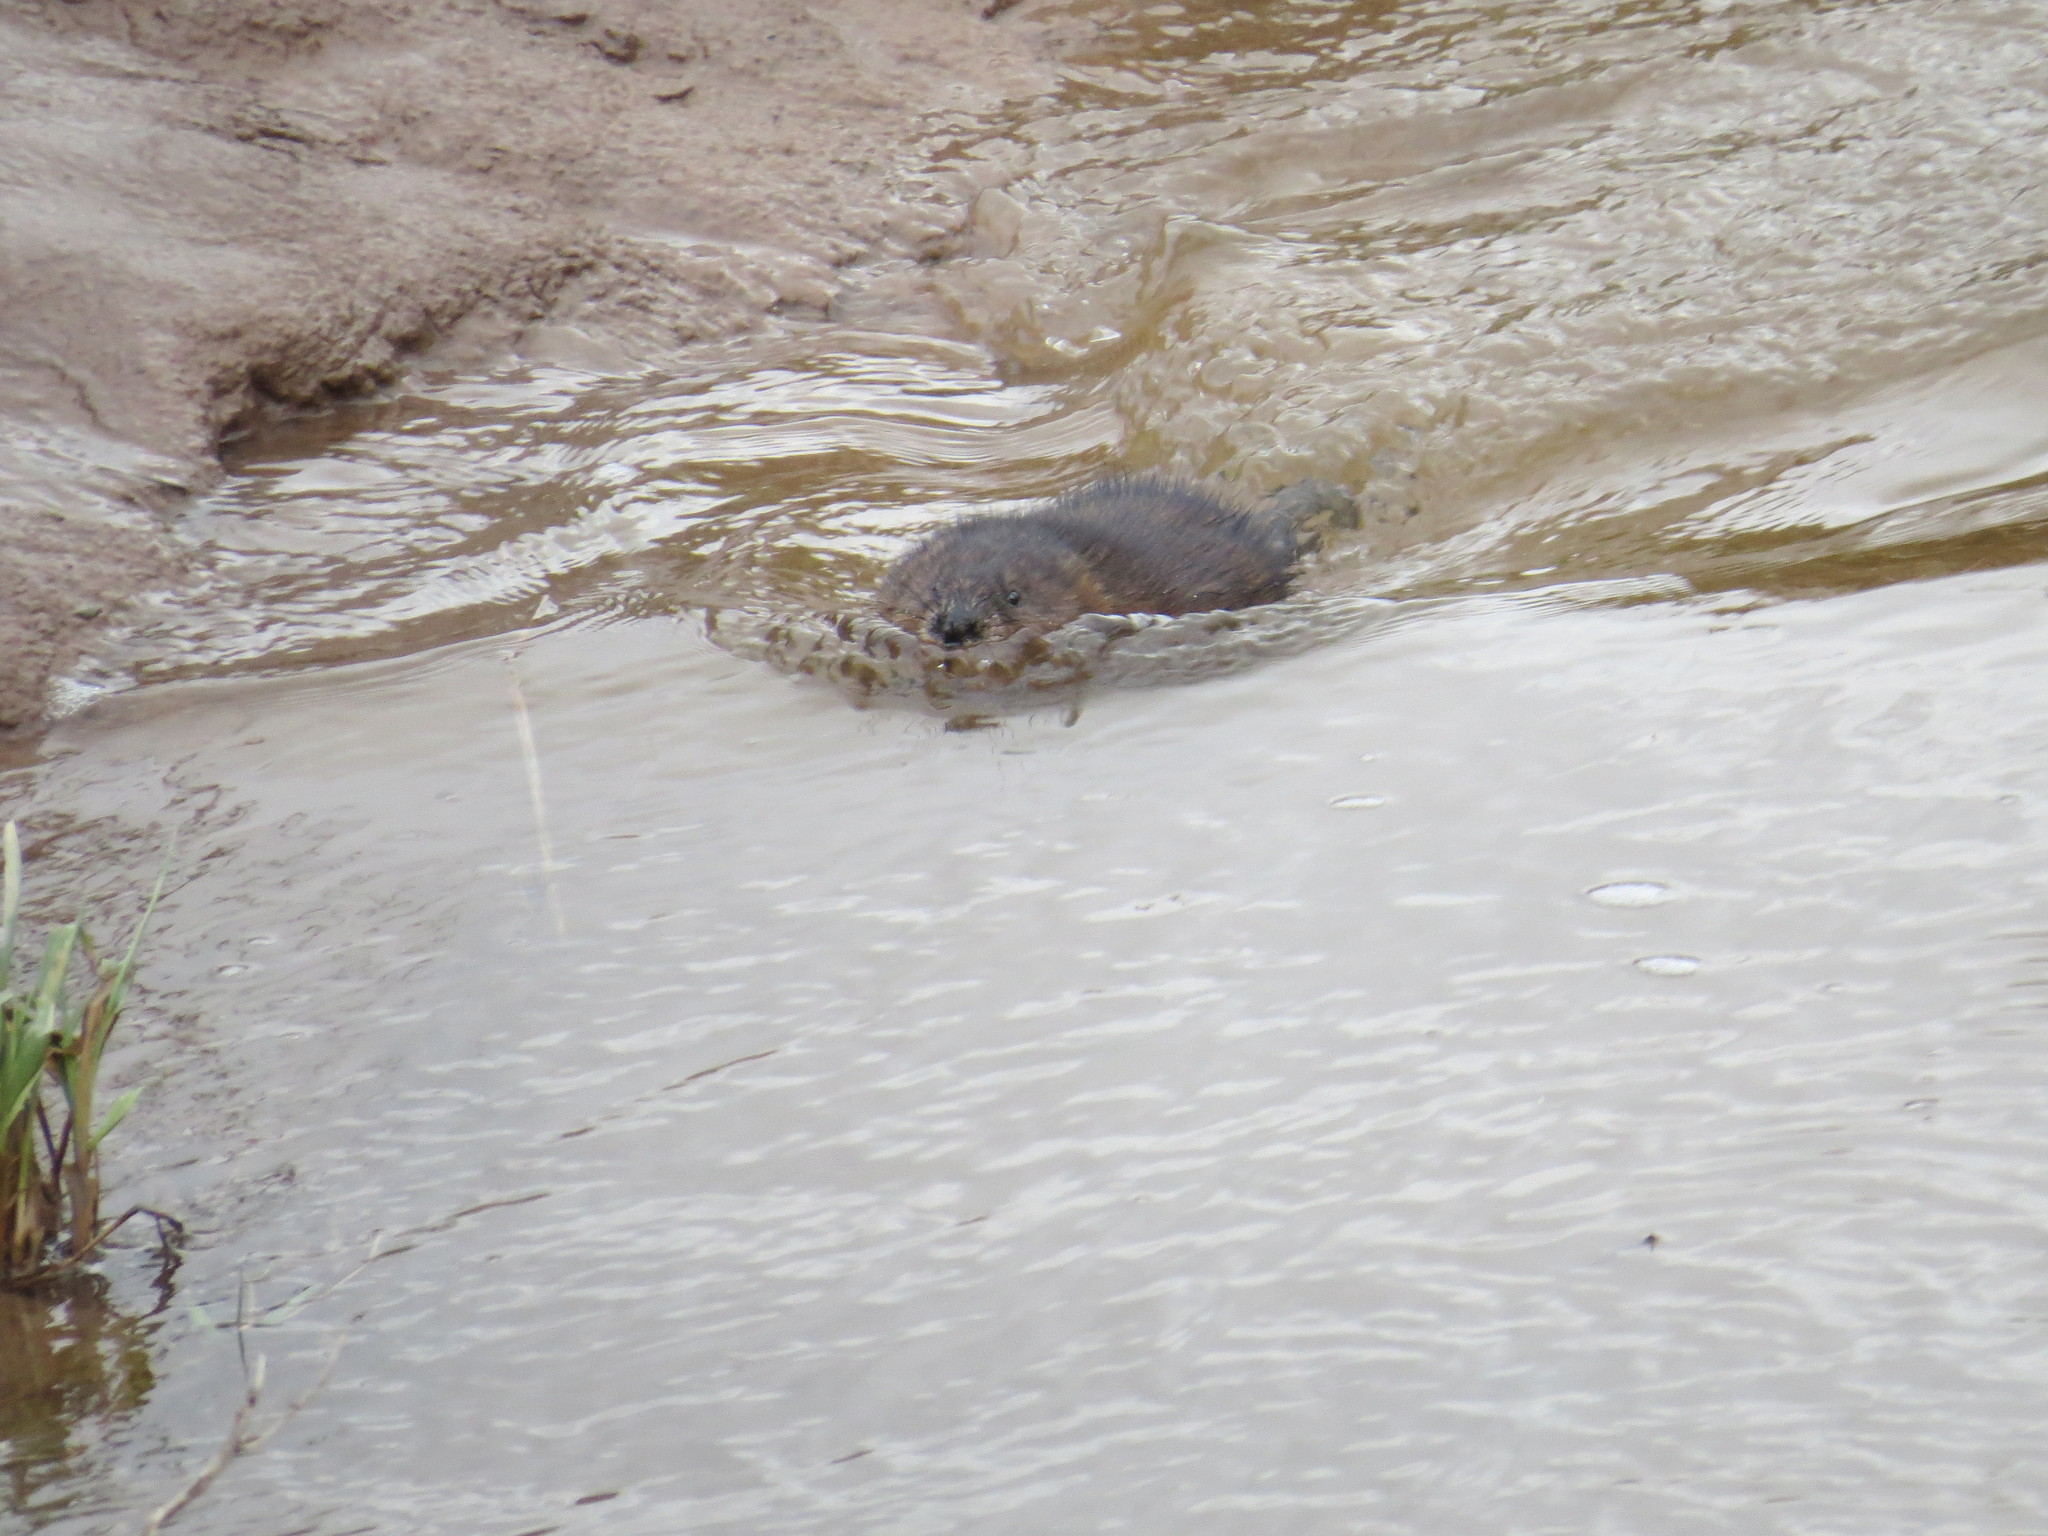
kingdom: Animalia
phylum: Chordata
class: Mammalia
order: Rodentia
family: Cricetidae
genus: Ondatra
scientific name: Ondatra zibethicus
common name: Muskrat
